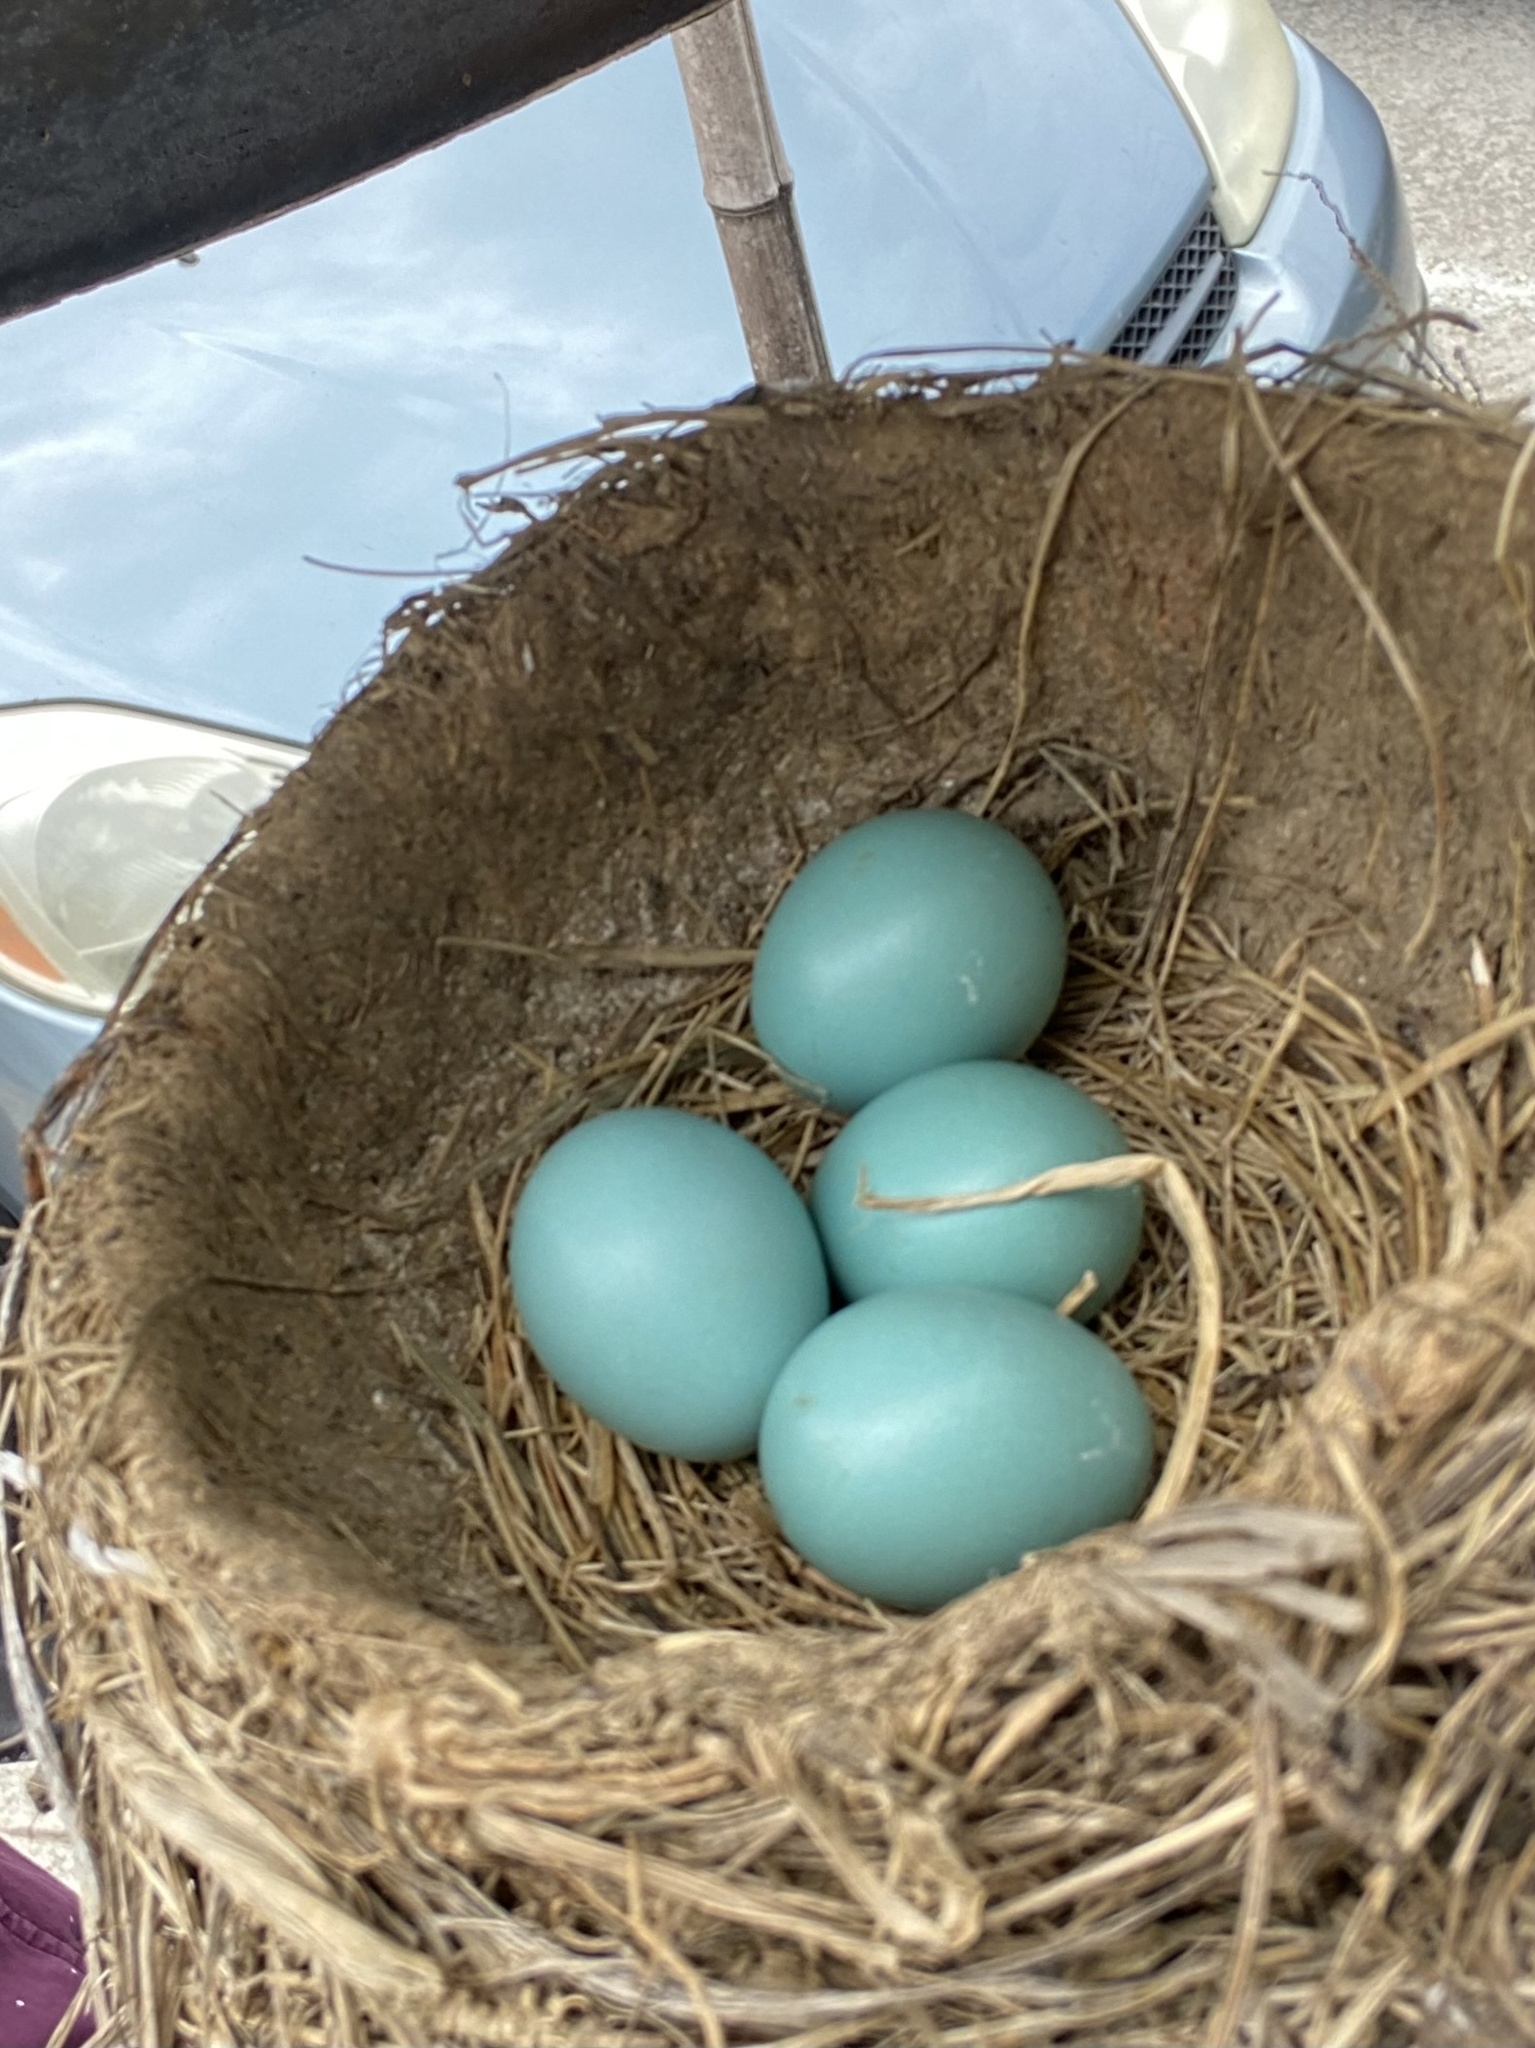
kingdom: Animalia
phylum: Chordata
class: Aves
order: Passeriformes
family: Turdidae
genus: Turdus
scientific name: Turdus migratorius
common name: American robin
